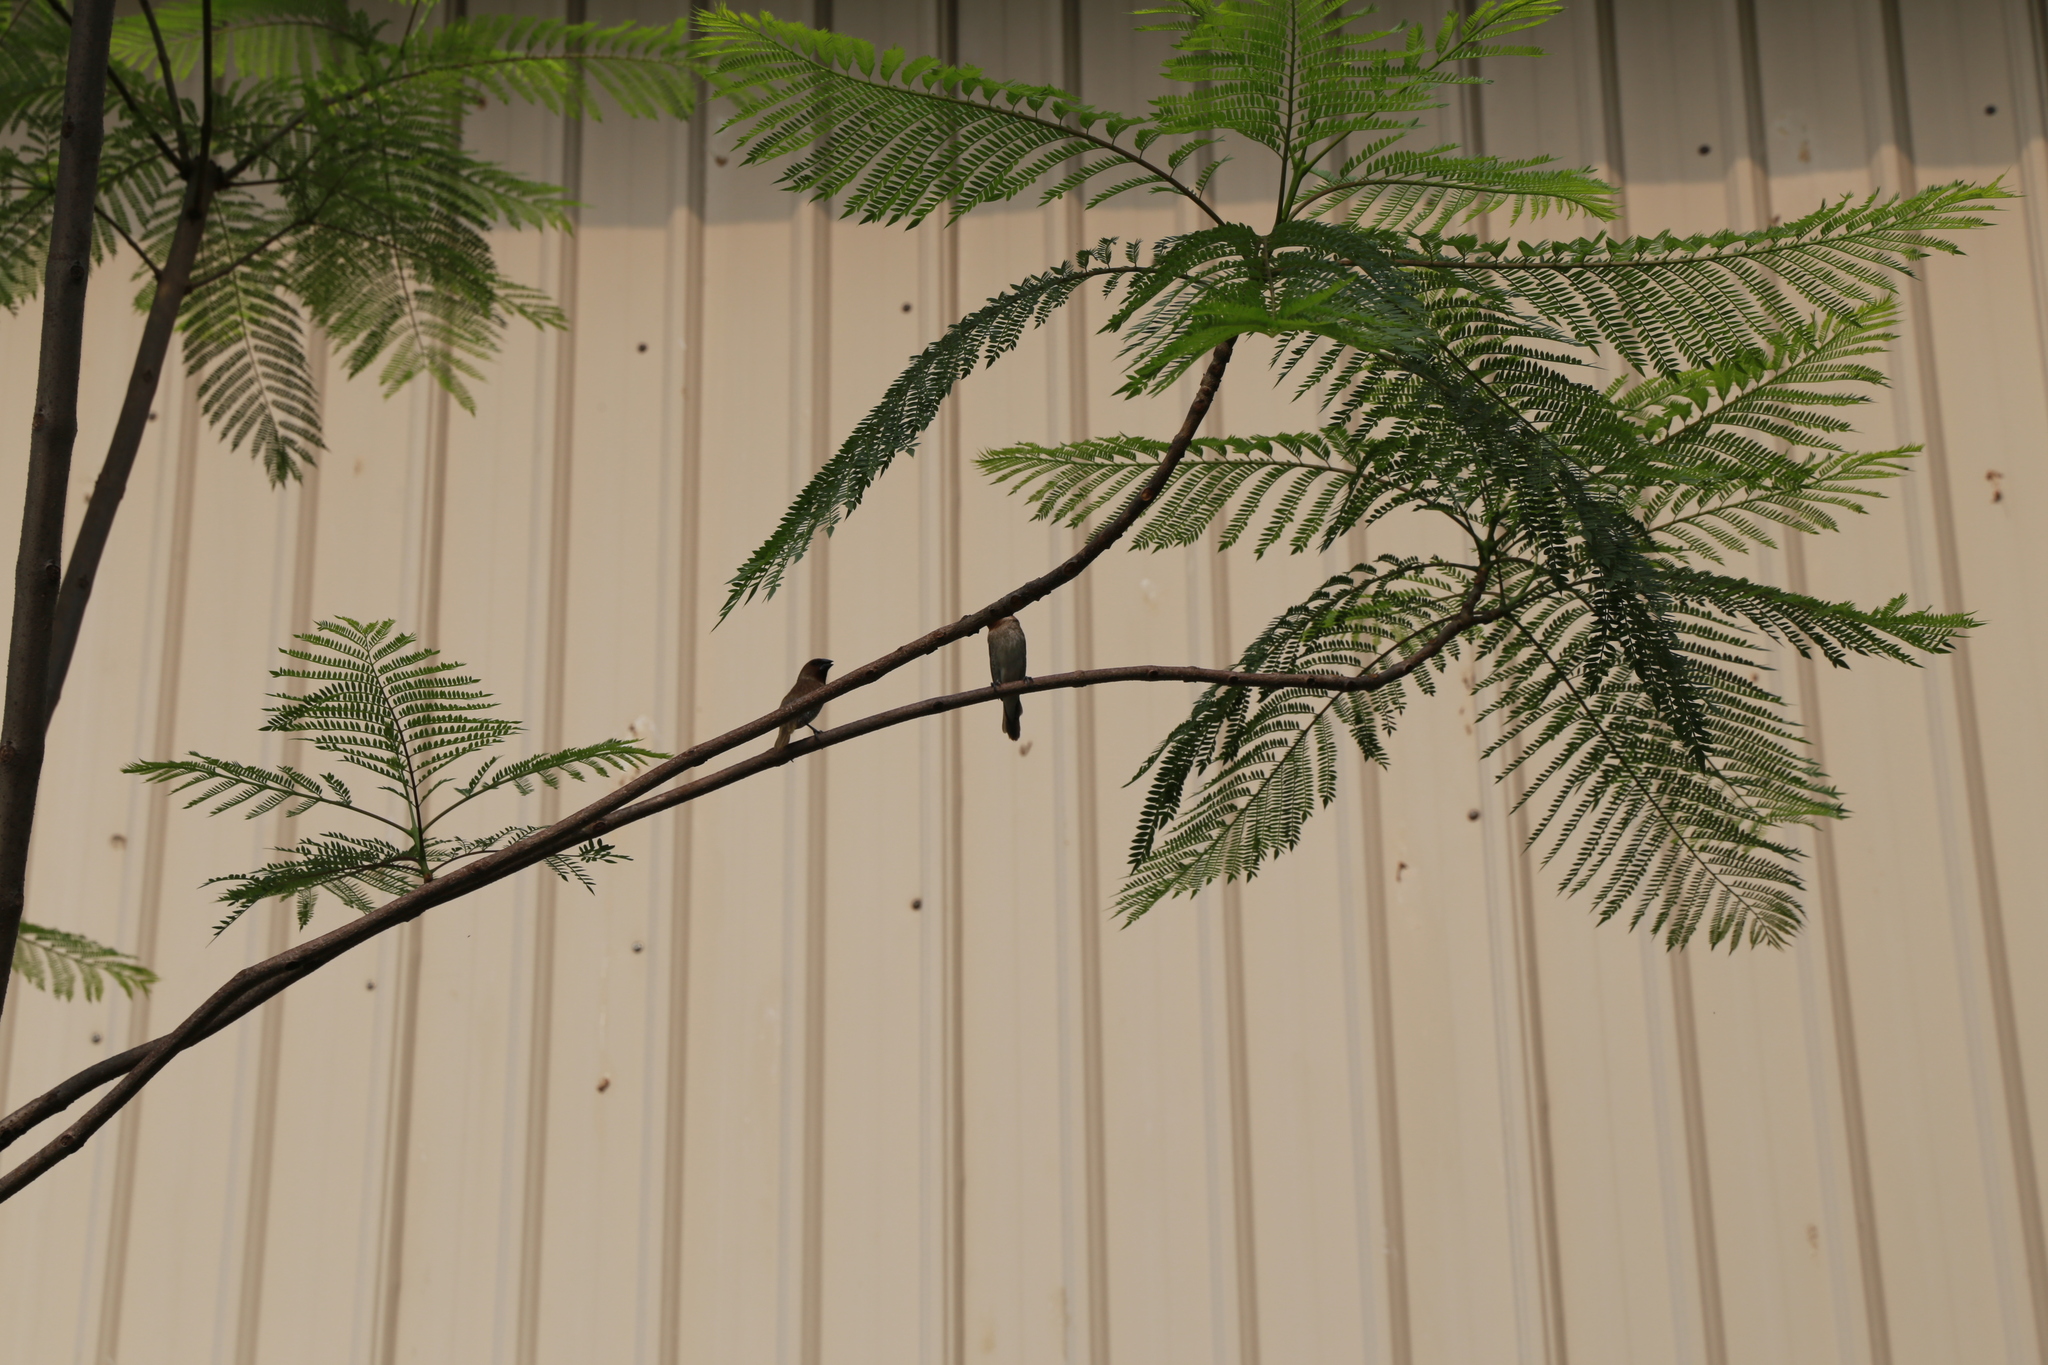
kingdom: Animalia
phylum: Chordata
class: Aves
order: Passeriformes
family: Estrildidae
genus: Lonchura
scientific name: Lonchura punctulata
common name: Scaly-breasted munia
